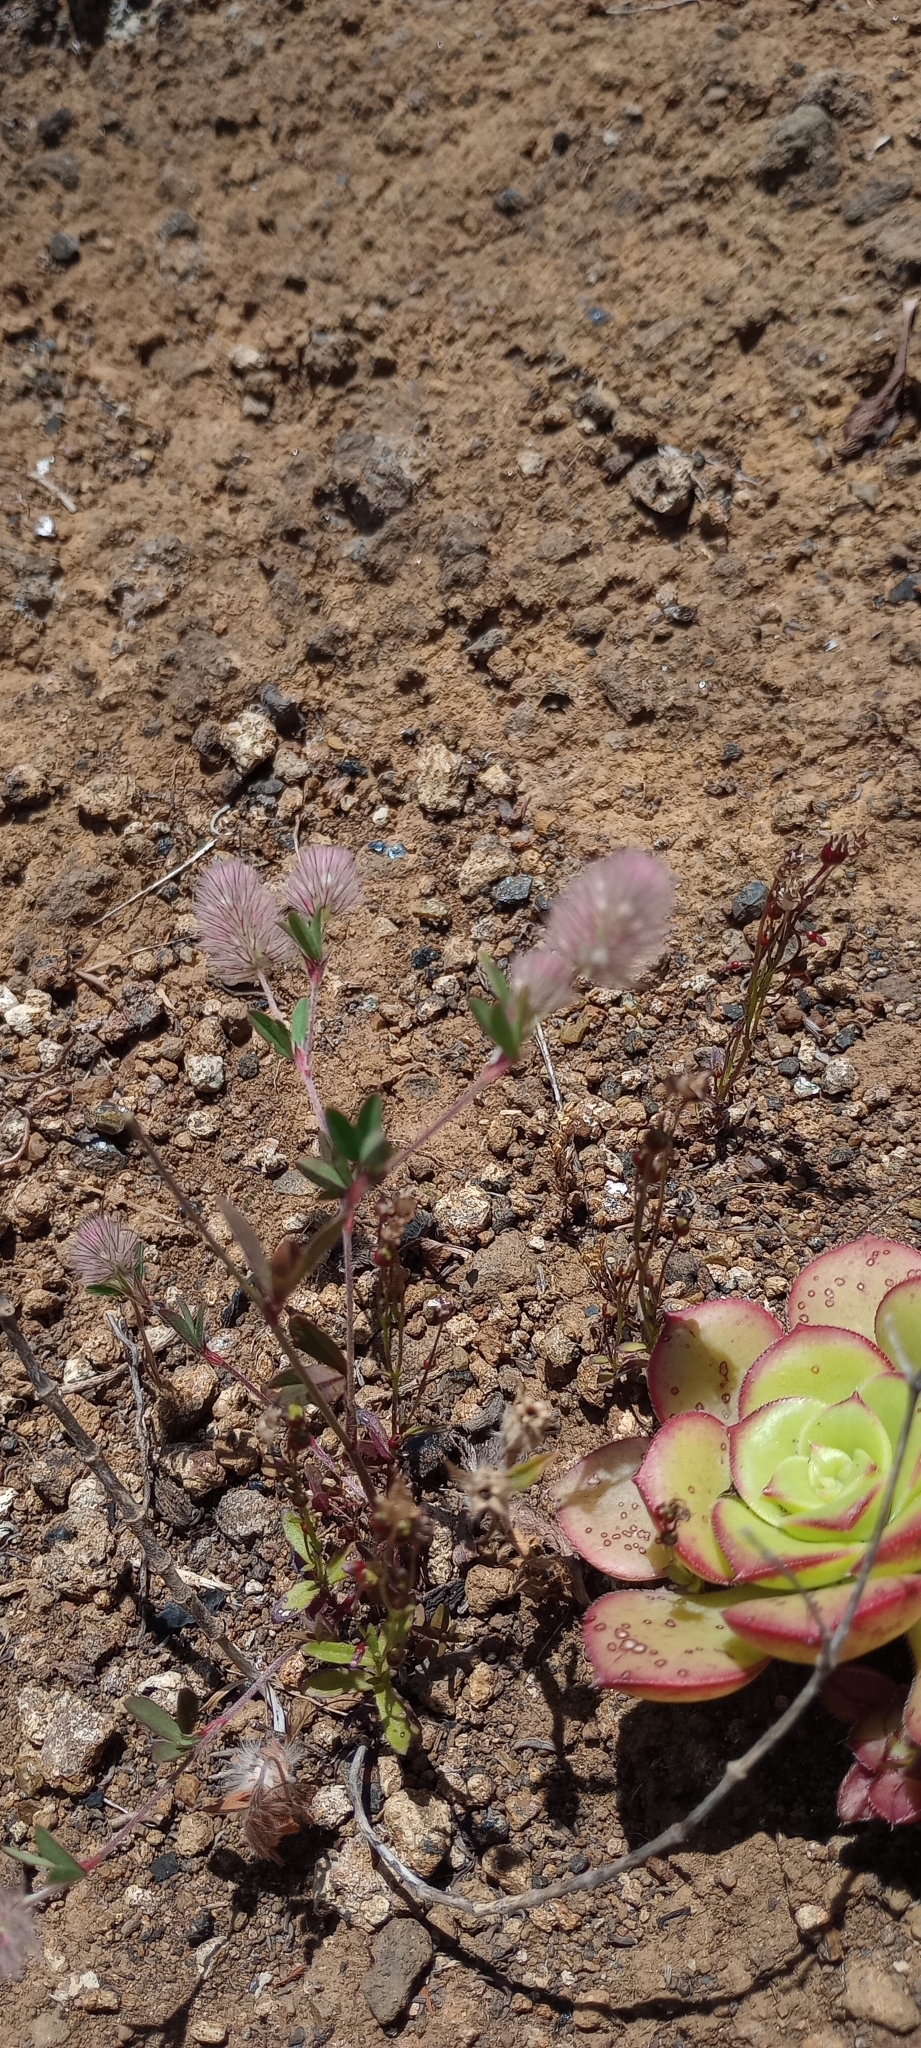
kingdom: Plantae
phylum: Tracheophyta
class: Magnoliopsida
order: Fabales
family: Fabaceae
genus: Trifolium
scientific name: Trifolium arvense
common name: Hare's-foot clover
